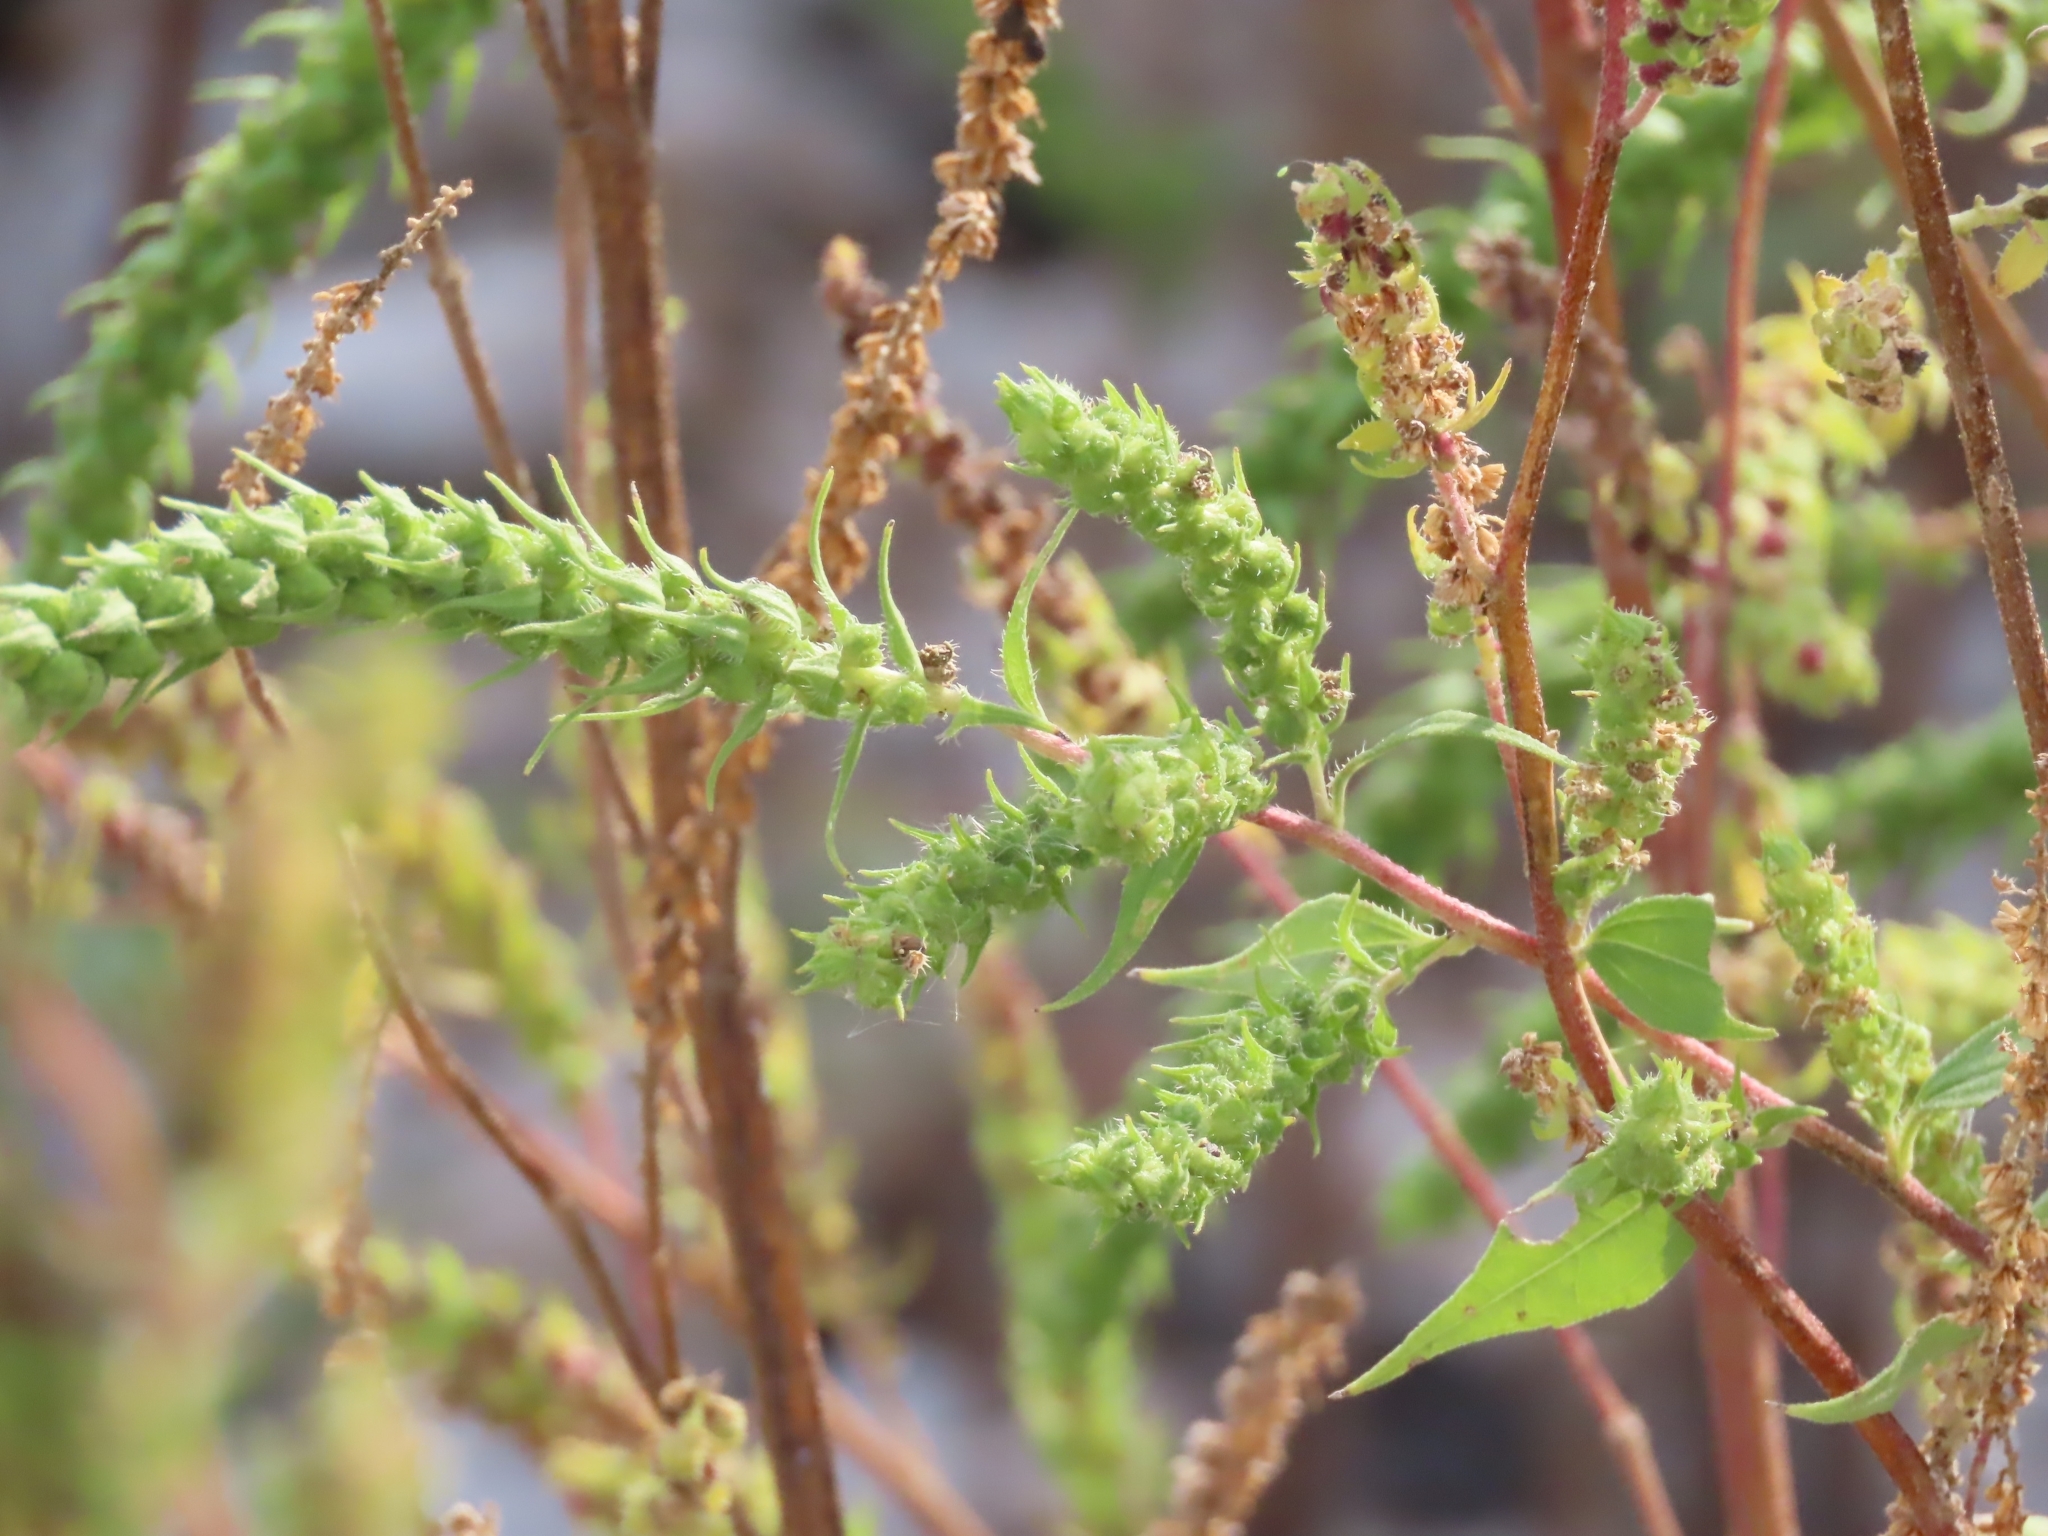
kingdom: Plantae
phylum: Tracheophyta
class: Magnoliopsida
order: Asterales
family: Asteraceae
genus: Iva
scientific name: Iva annua
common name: Marsh-elder
